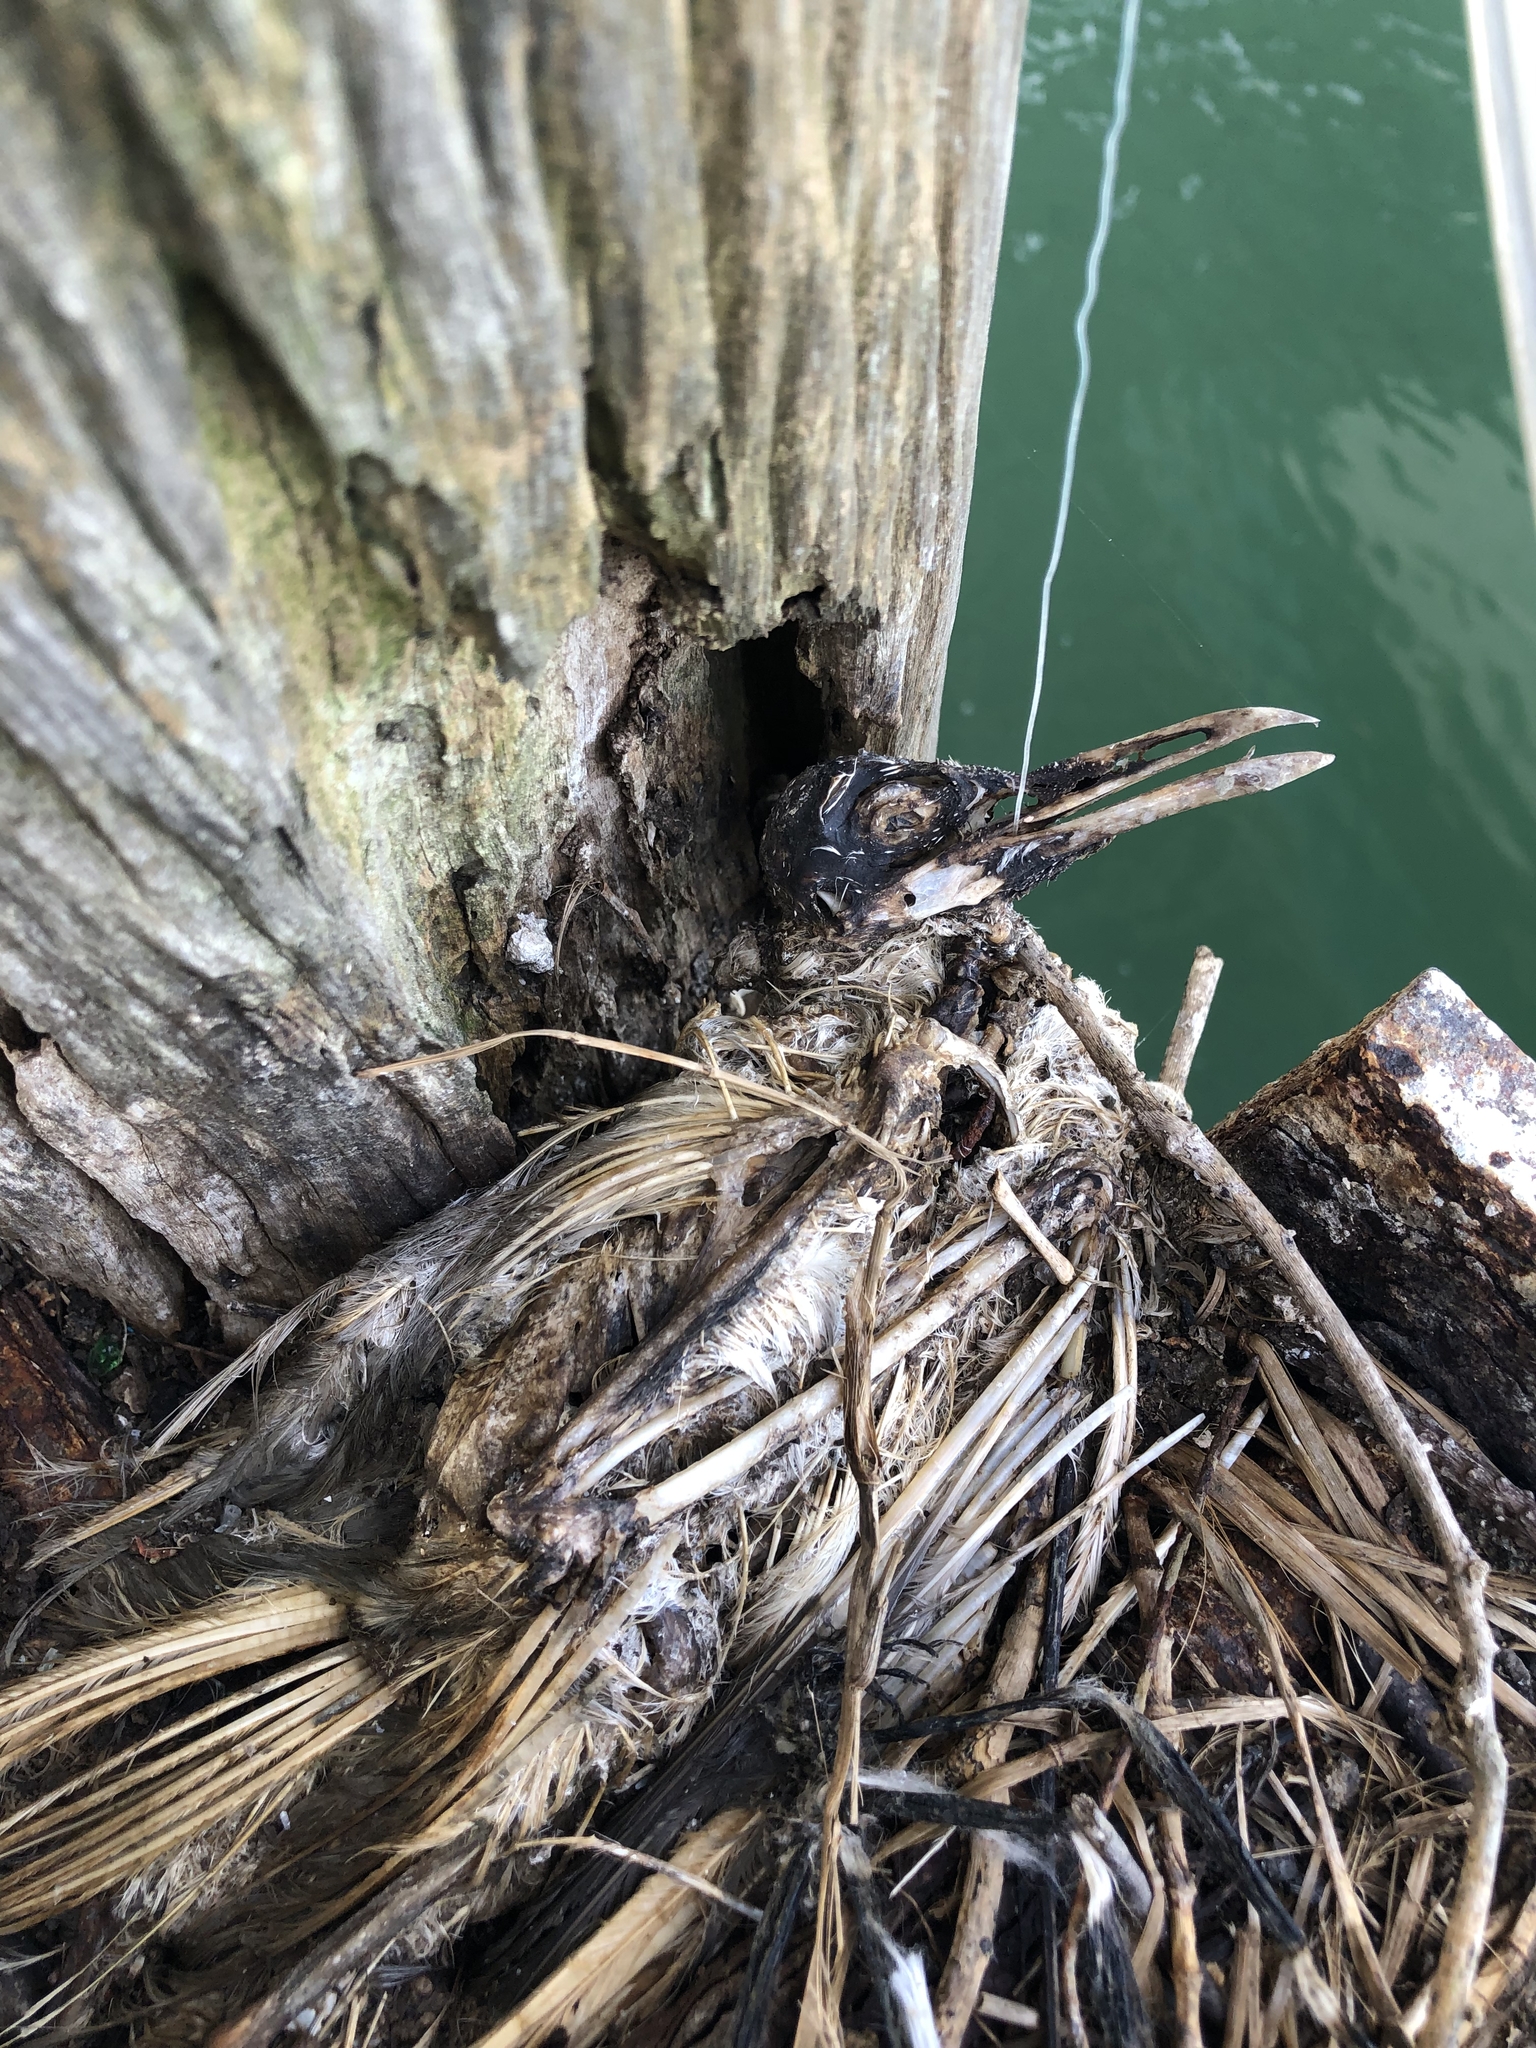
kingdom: Animalia
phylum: Chordata
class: Aves
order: Charadriiformes
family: Laridae
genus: Chroicocephalus
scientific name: Chroicocephalus novaehollandiae
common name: Silver gull
